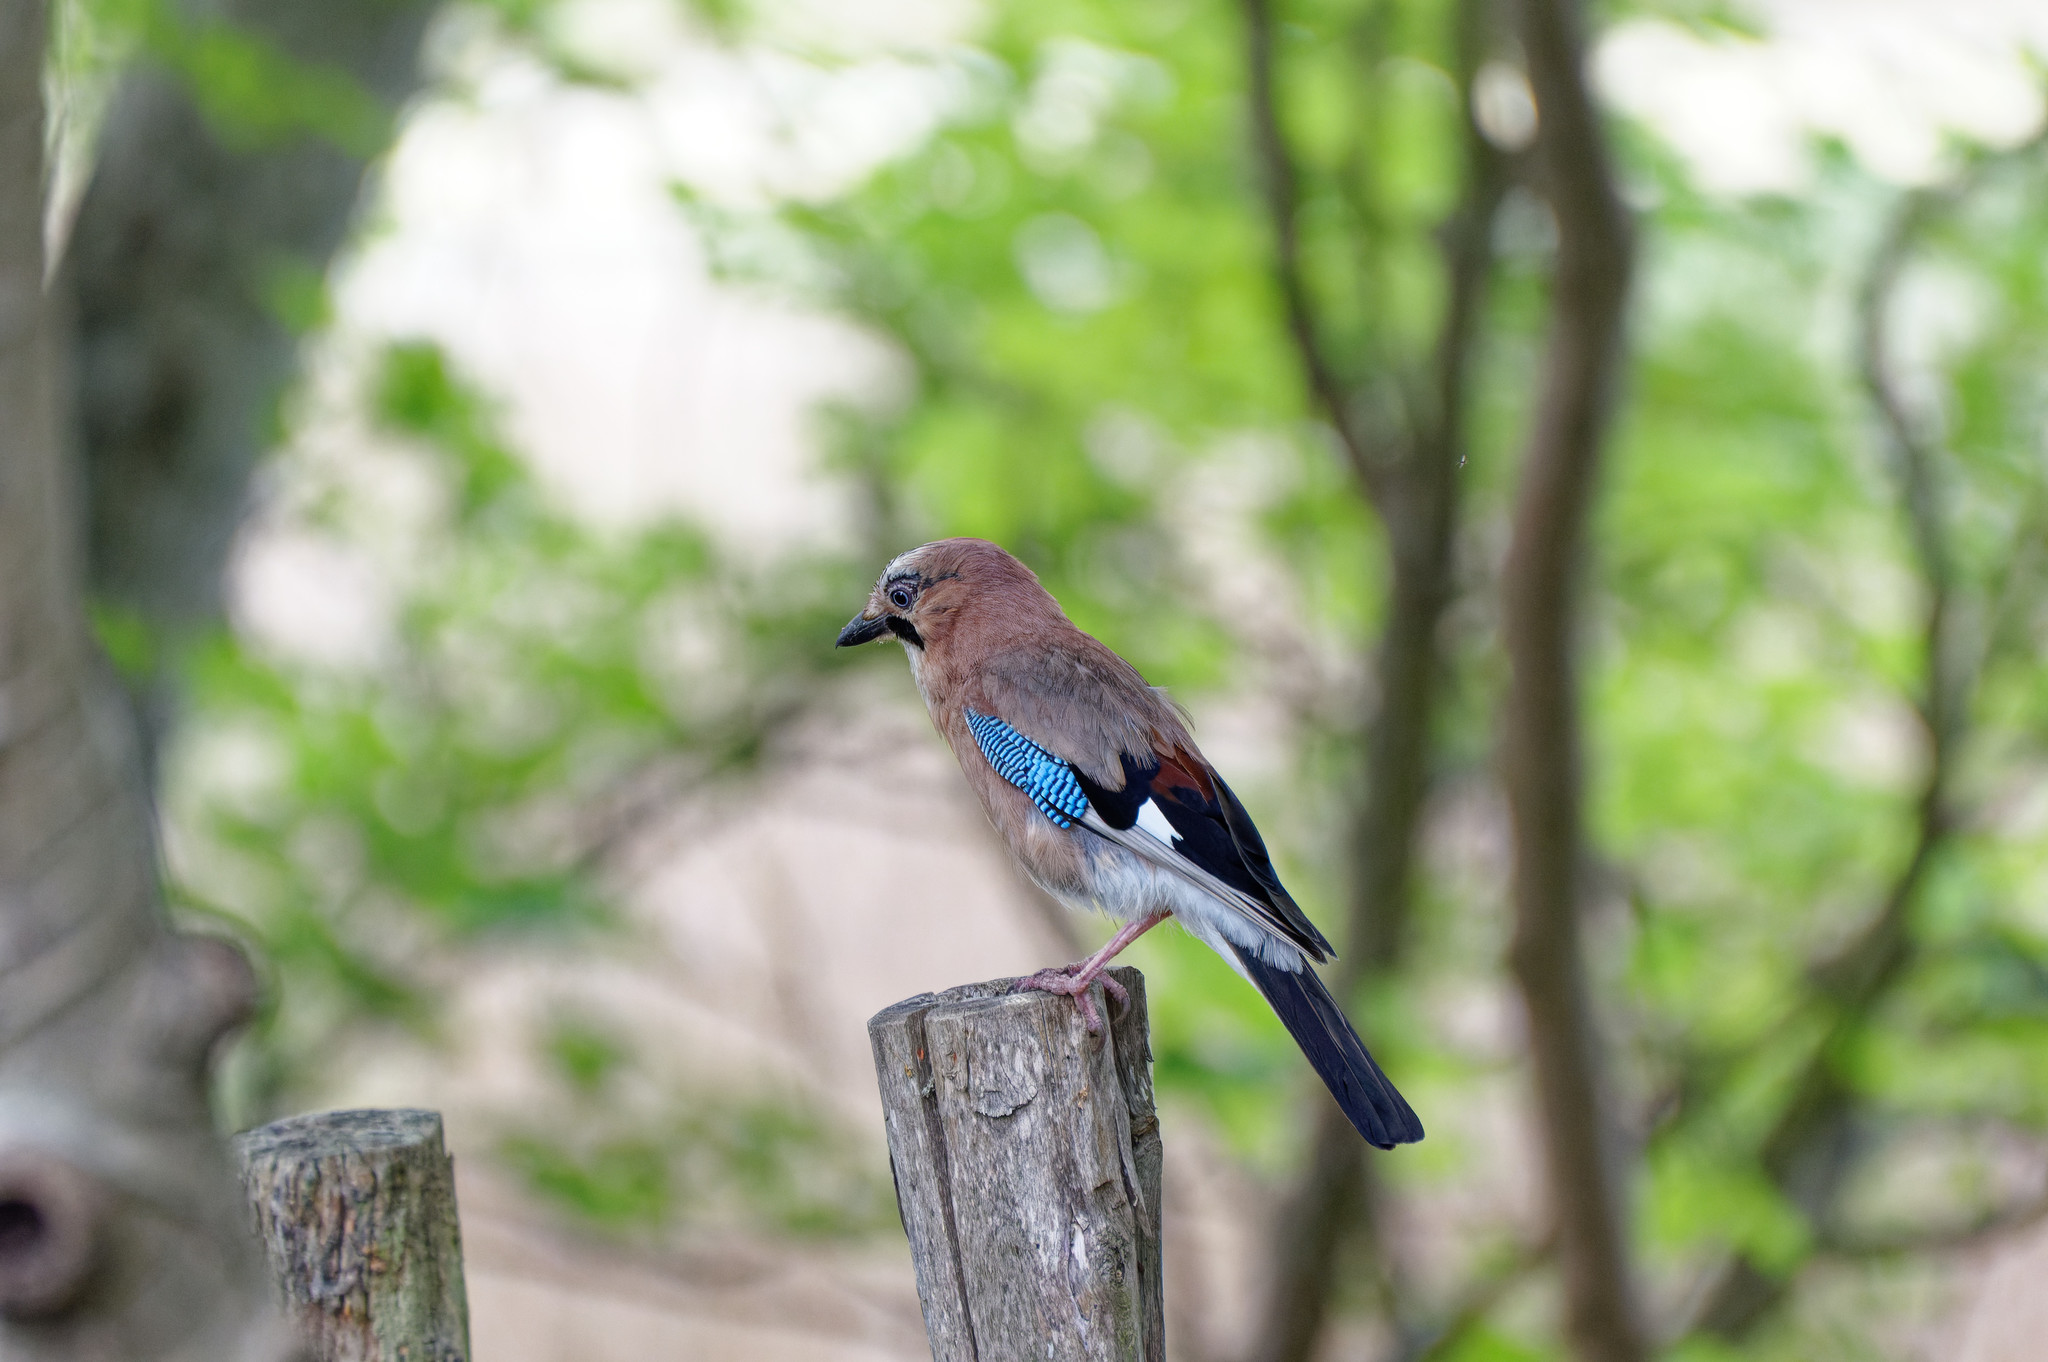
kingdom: Animalia
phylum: Chordata
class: Aves
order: Passeriformes
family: Corvidae
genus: Garrulus
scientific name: Garrulus glandarius
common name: Eurasian jay
